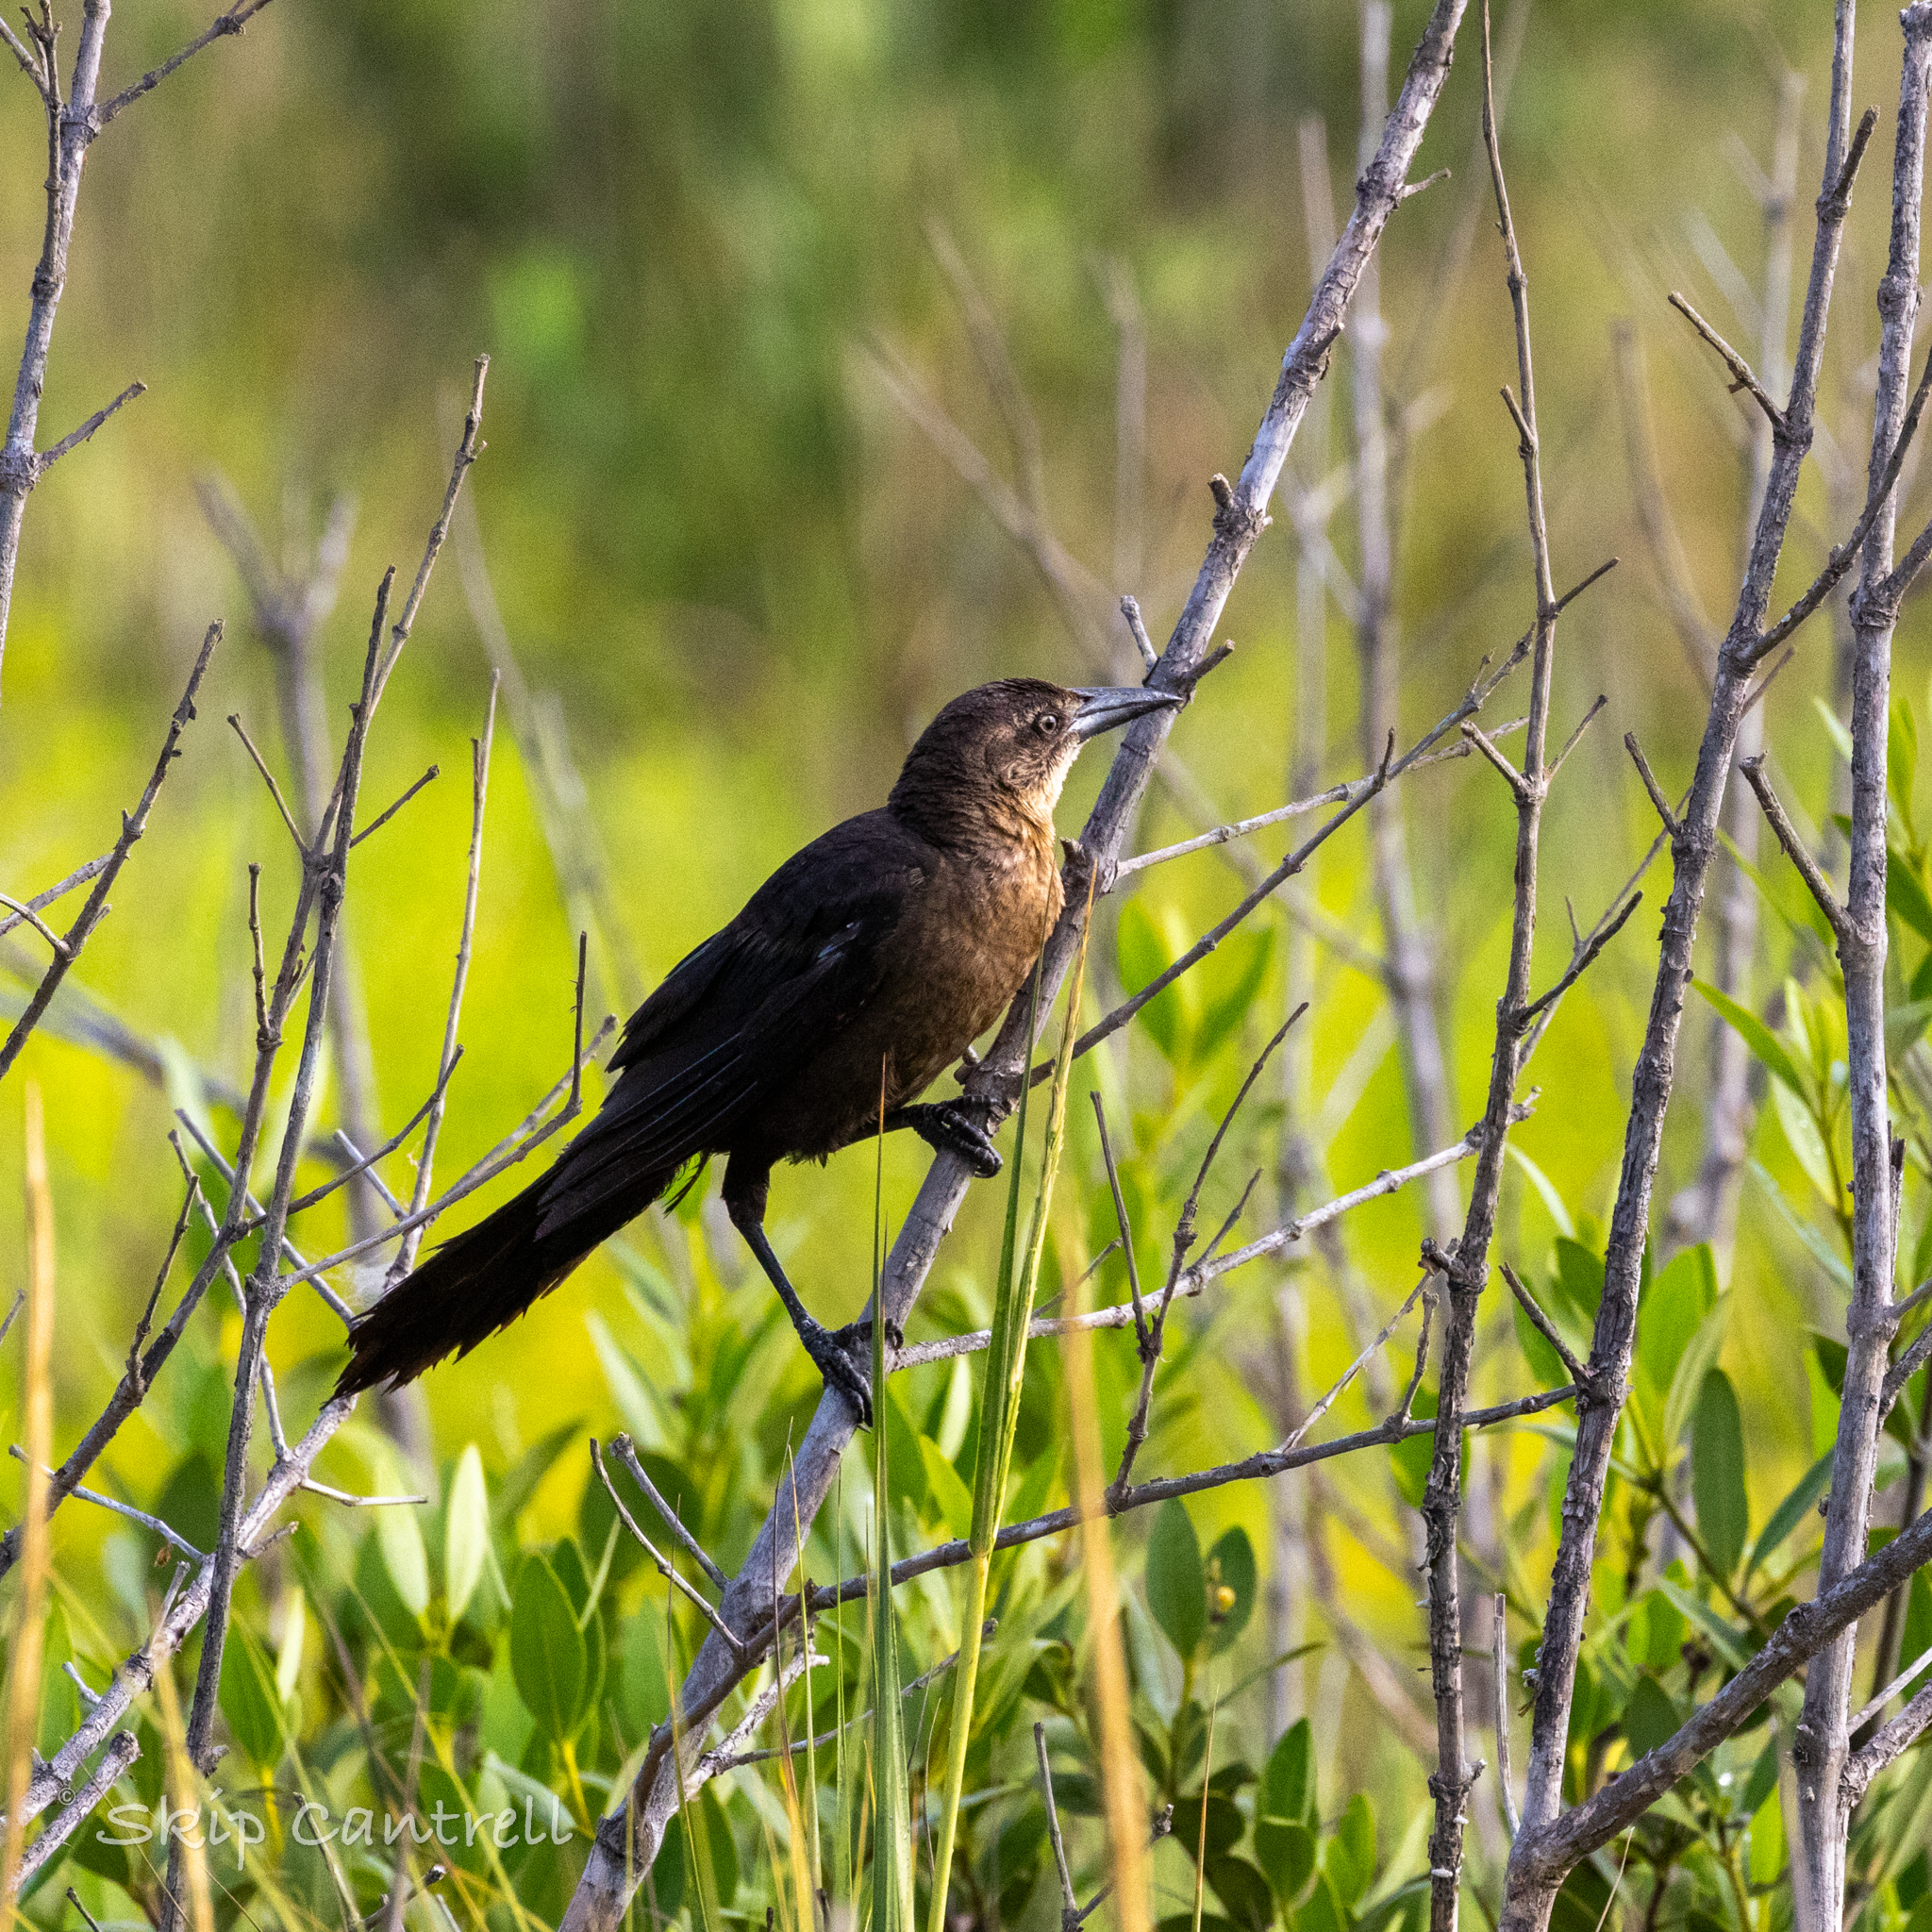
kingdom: Animalia
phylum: Chordata
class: Aves
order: Passeriformes
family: Icteridae
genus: Quiscalus
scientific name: Quiscalus mexicanus
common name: Great-tailed grackle
